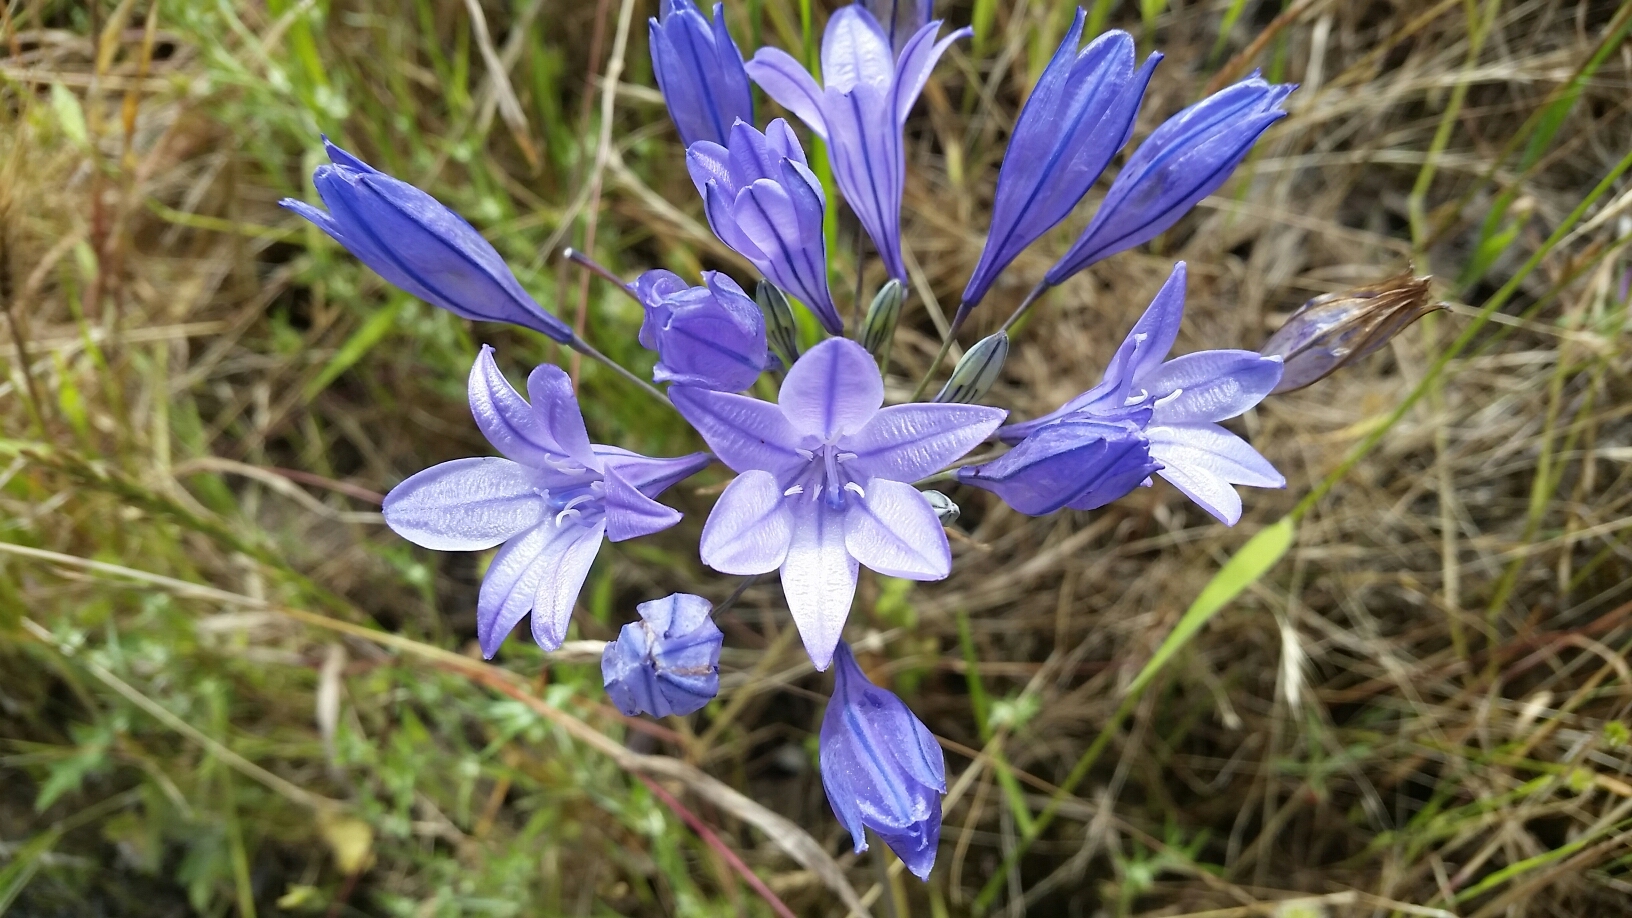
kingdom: Plantae
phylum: Tracheophyta
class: Liliopsida
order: Asparagales
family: Asparagaceae
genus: Triteleia
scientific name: Triteleia laxa
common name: Triplet-lily
